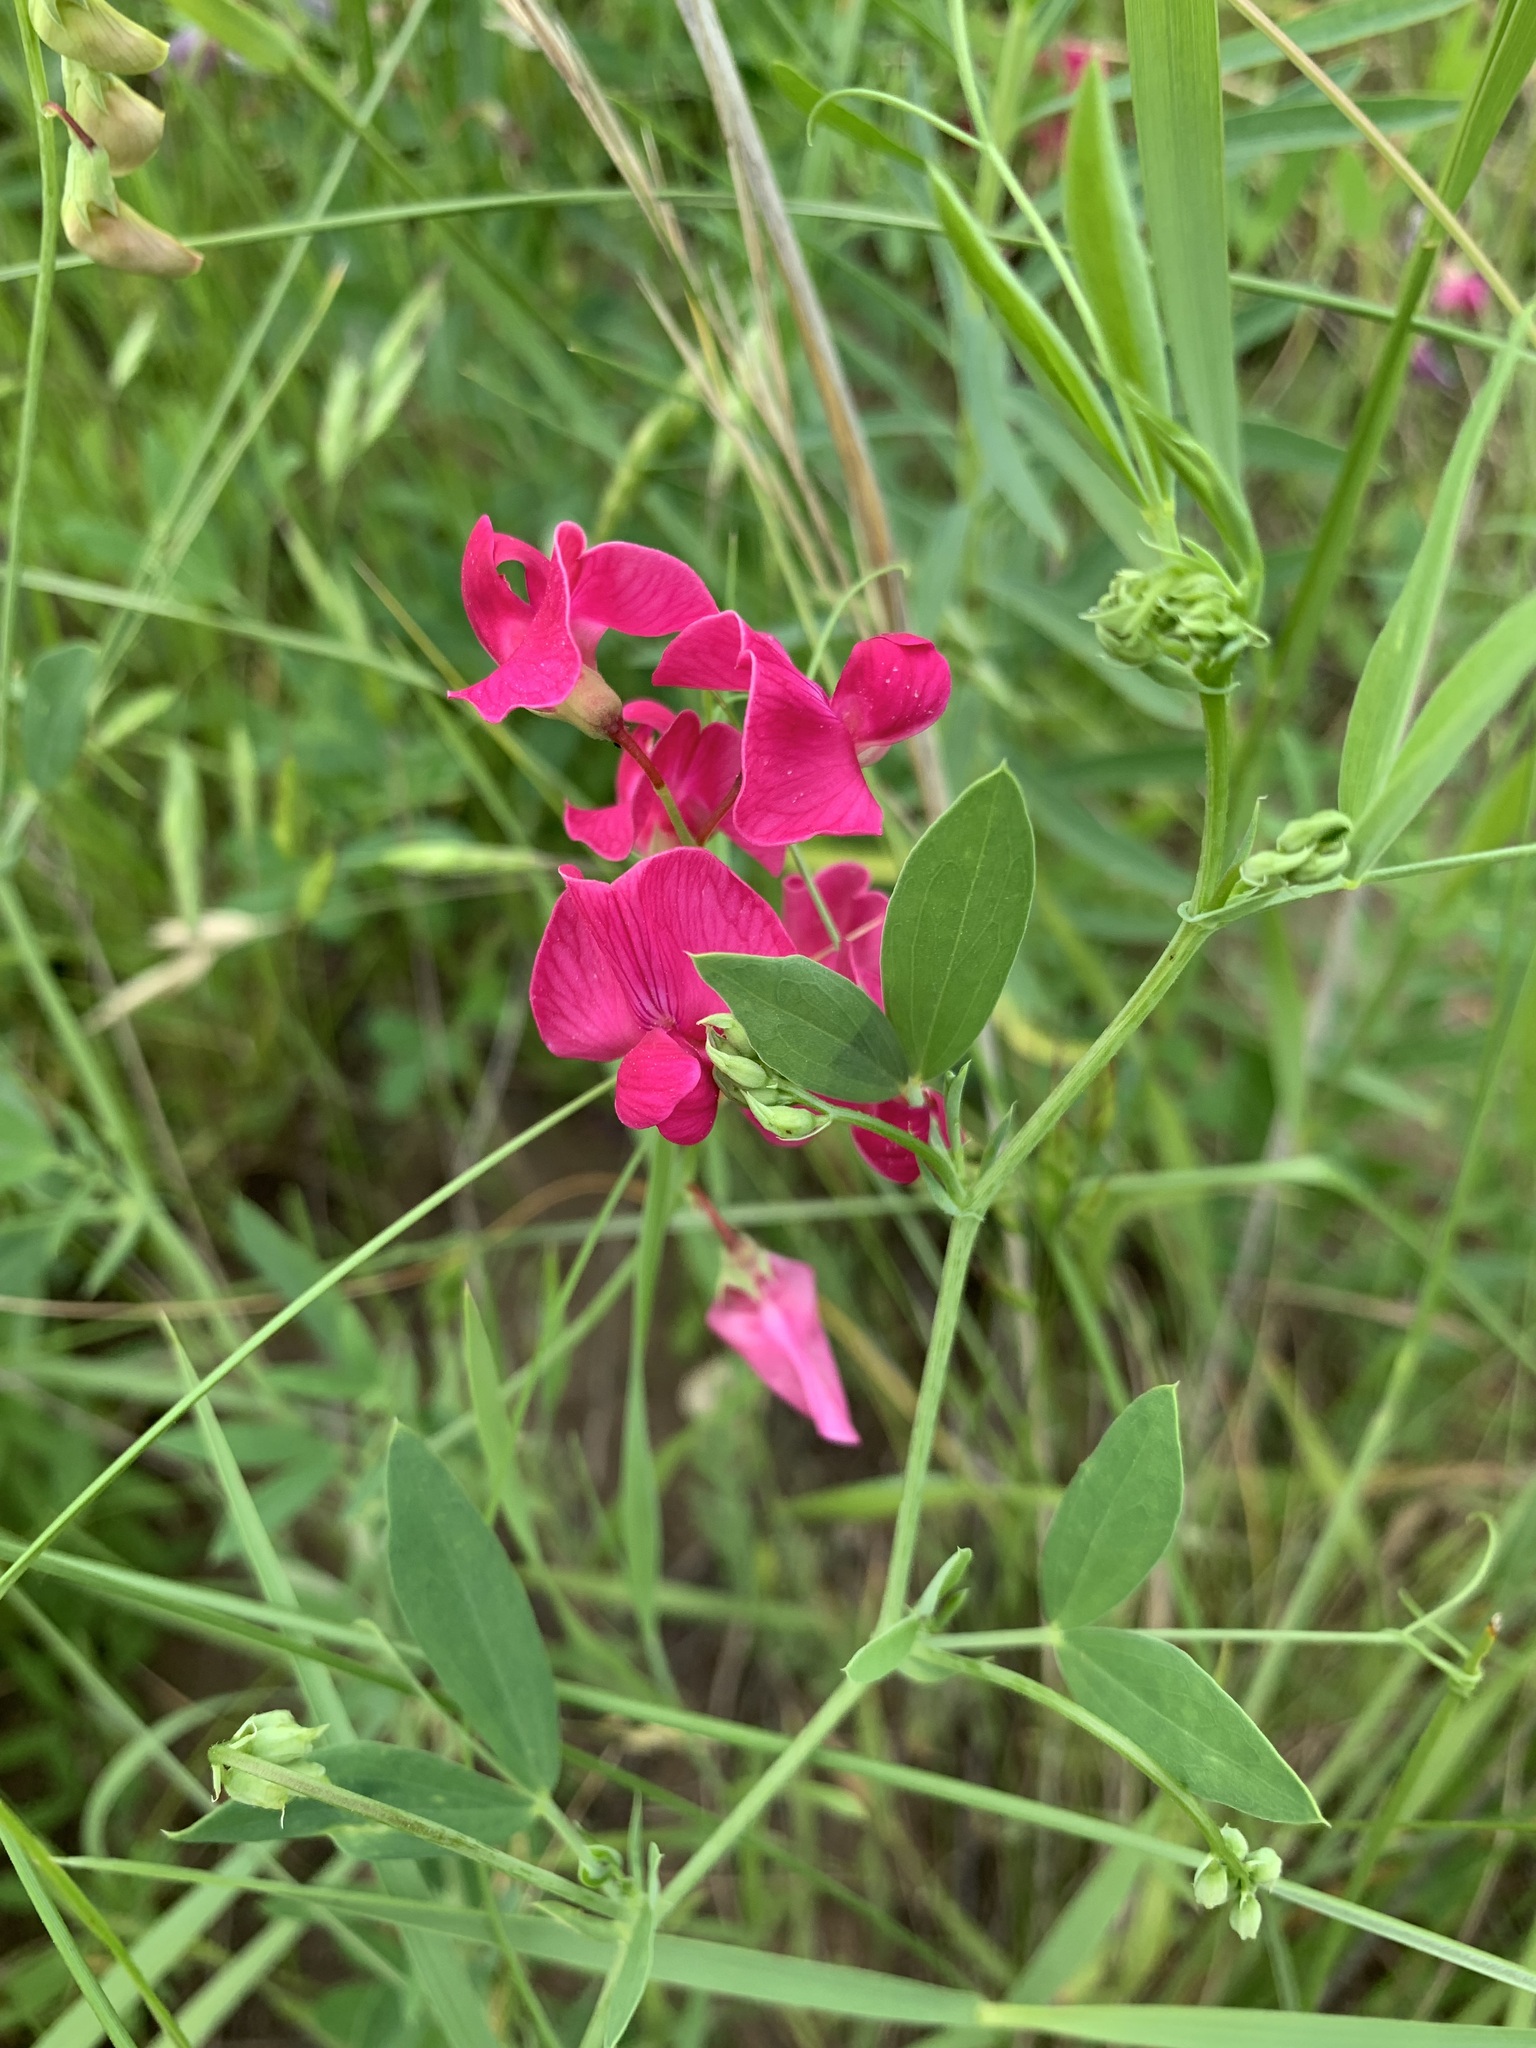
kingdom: Plantae
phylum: Tracheophyta
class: Magnoliopsida
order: Fabales
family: Fabaceae
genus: Lathyrus
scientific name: Lathyrus tuberosus
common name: Tuberous pea
